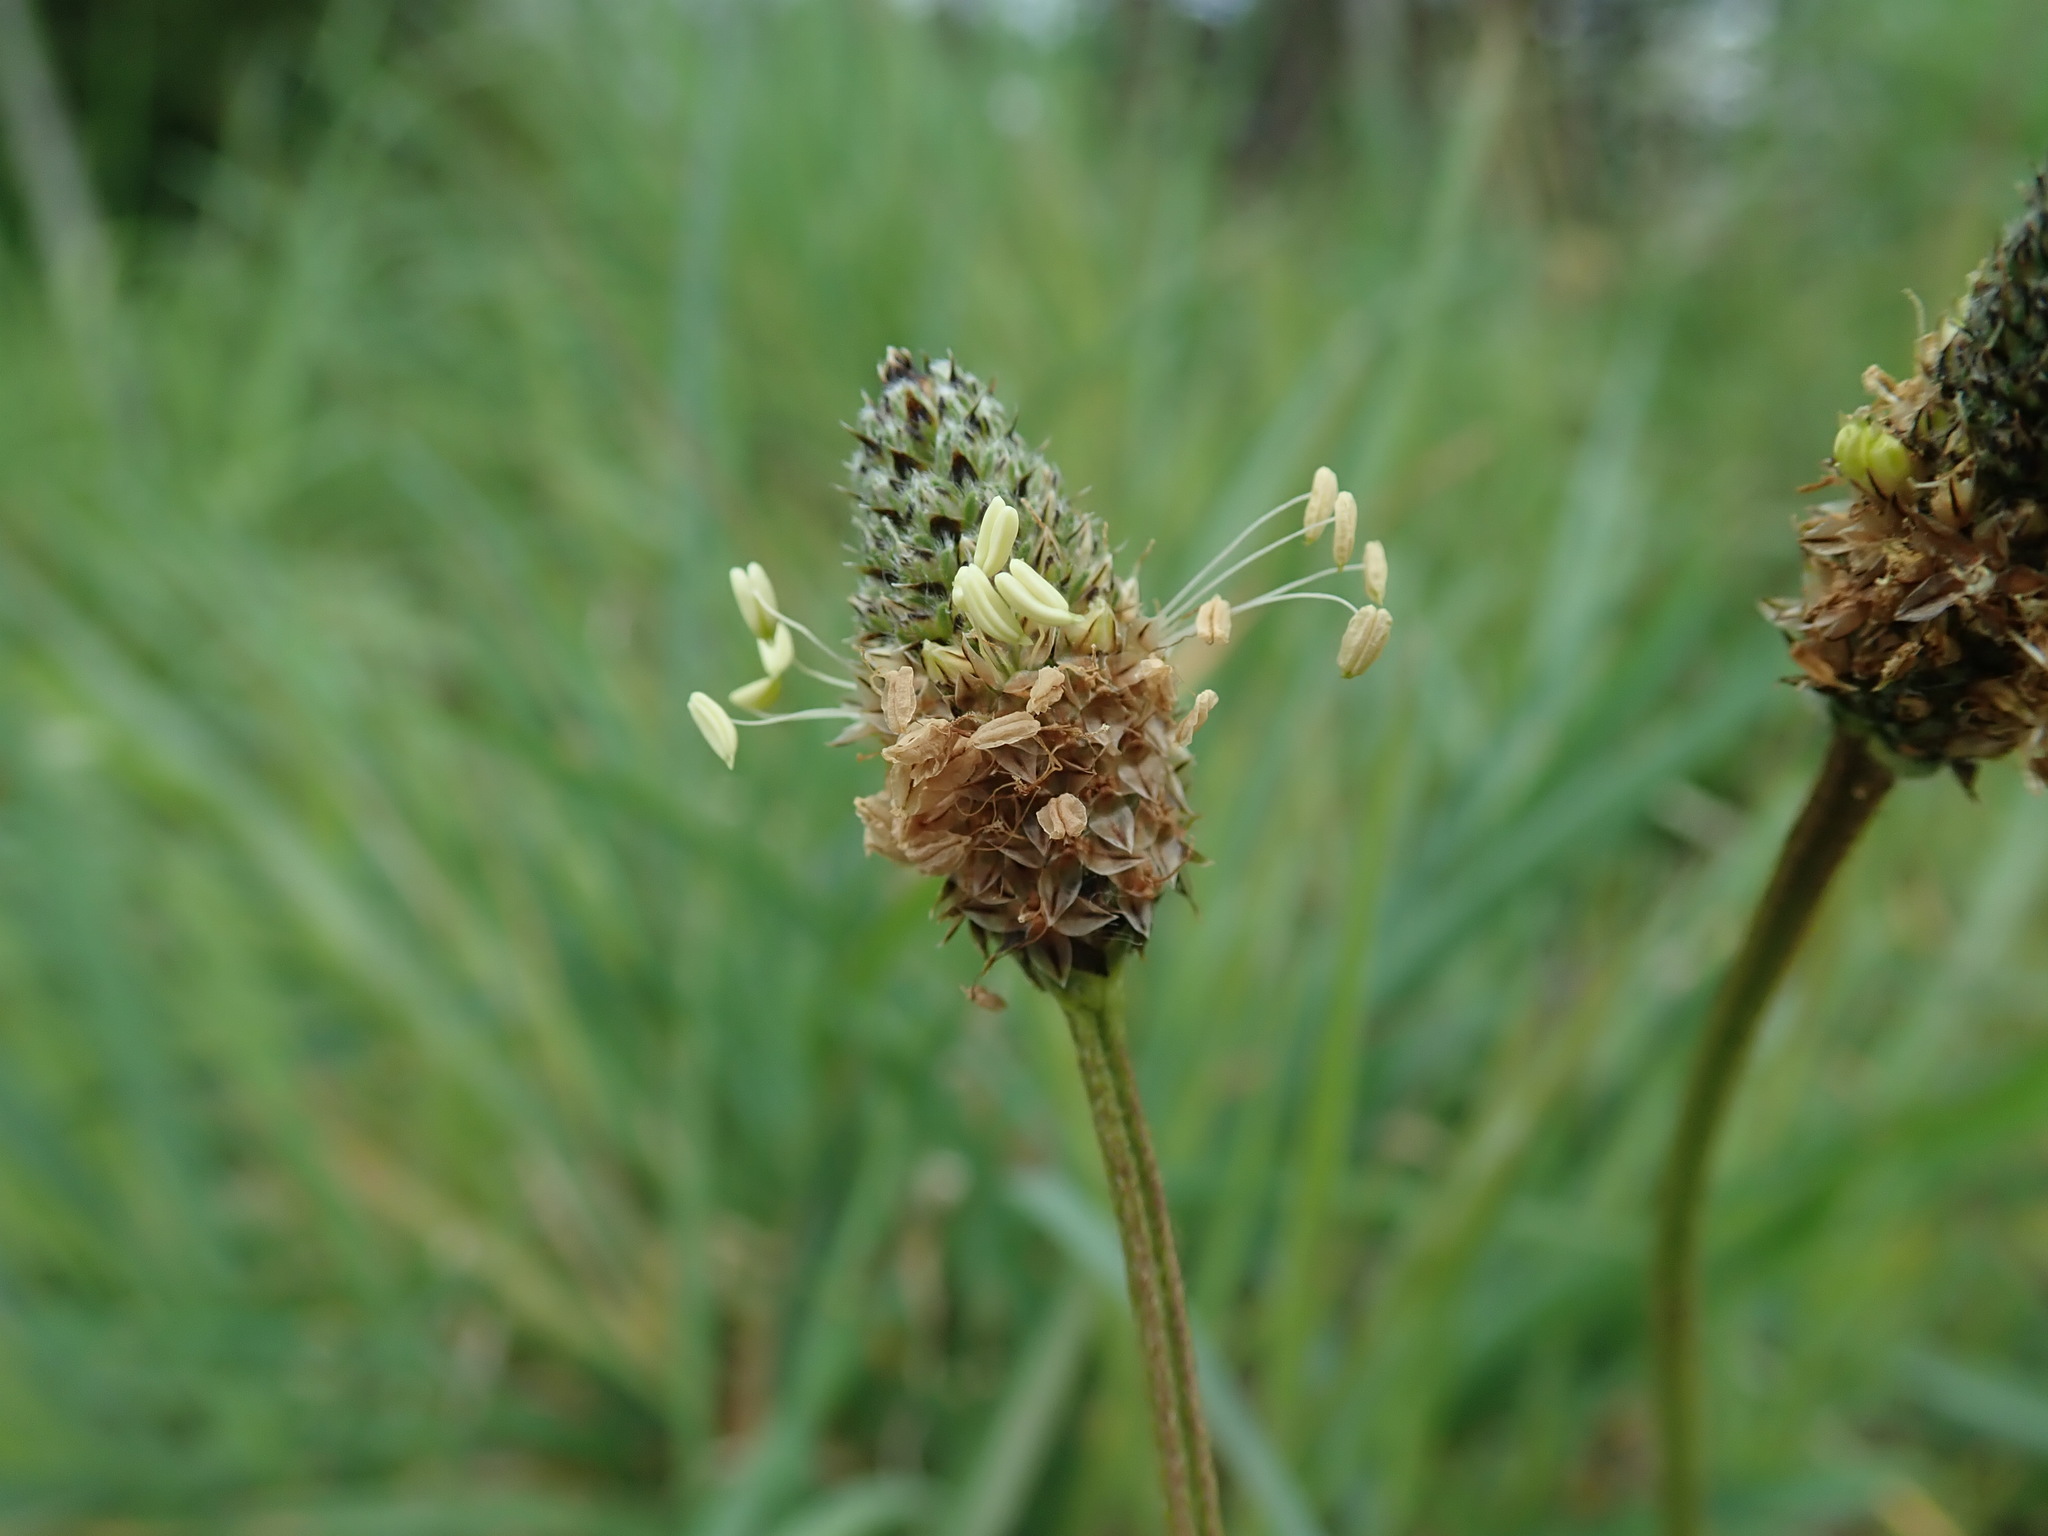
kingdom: Plantae
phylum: Tracheophyta
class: Magnoliopsida
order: Lamiales
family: Plantaginaceae
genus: Plantago
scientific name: Plantago lanceolata
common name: Ribwort plantain
